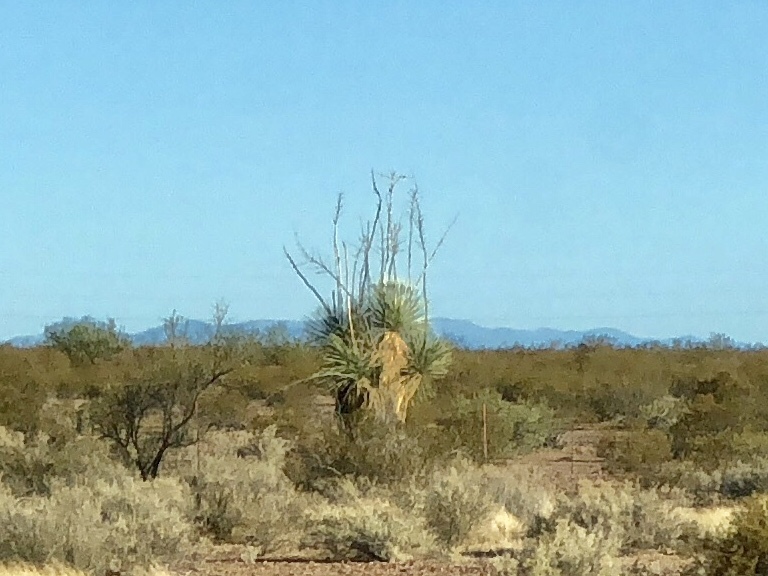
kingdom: Plantae
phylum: Tracheophyta
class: Liliopsida
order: Asparagales
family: Asparagaceae
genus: Yucca
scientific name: Yucca elata
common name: Palmella
